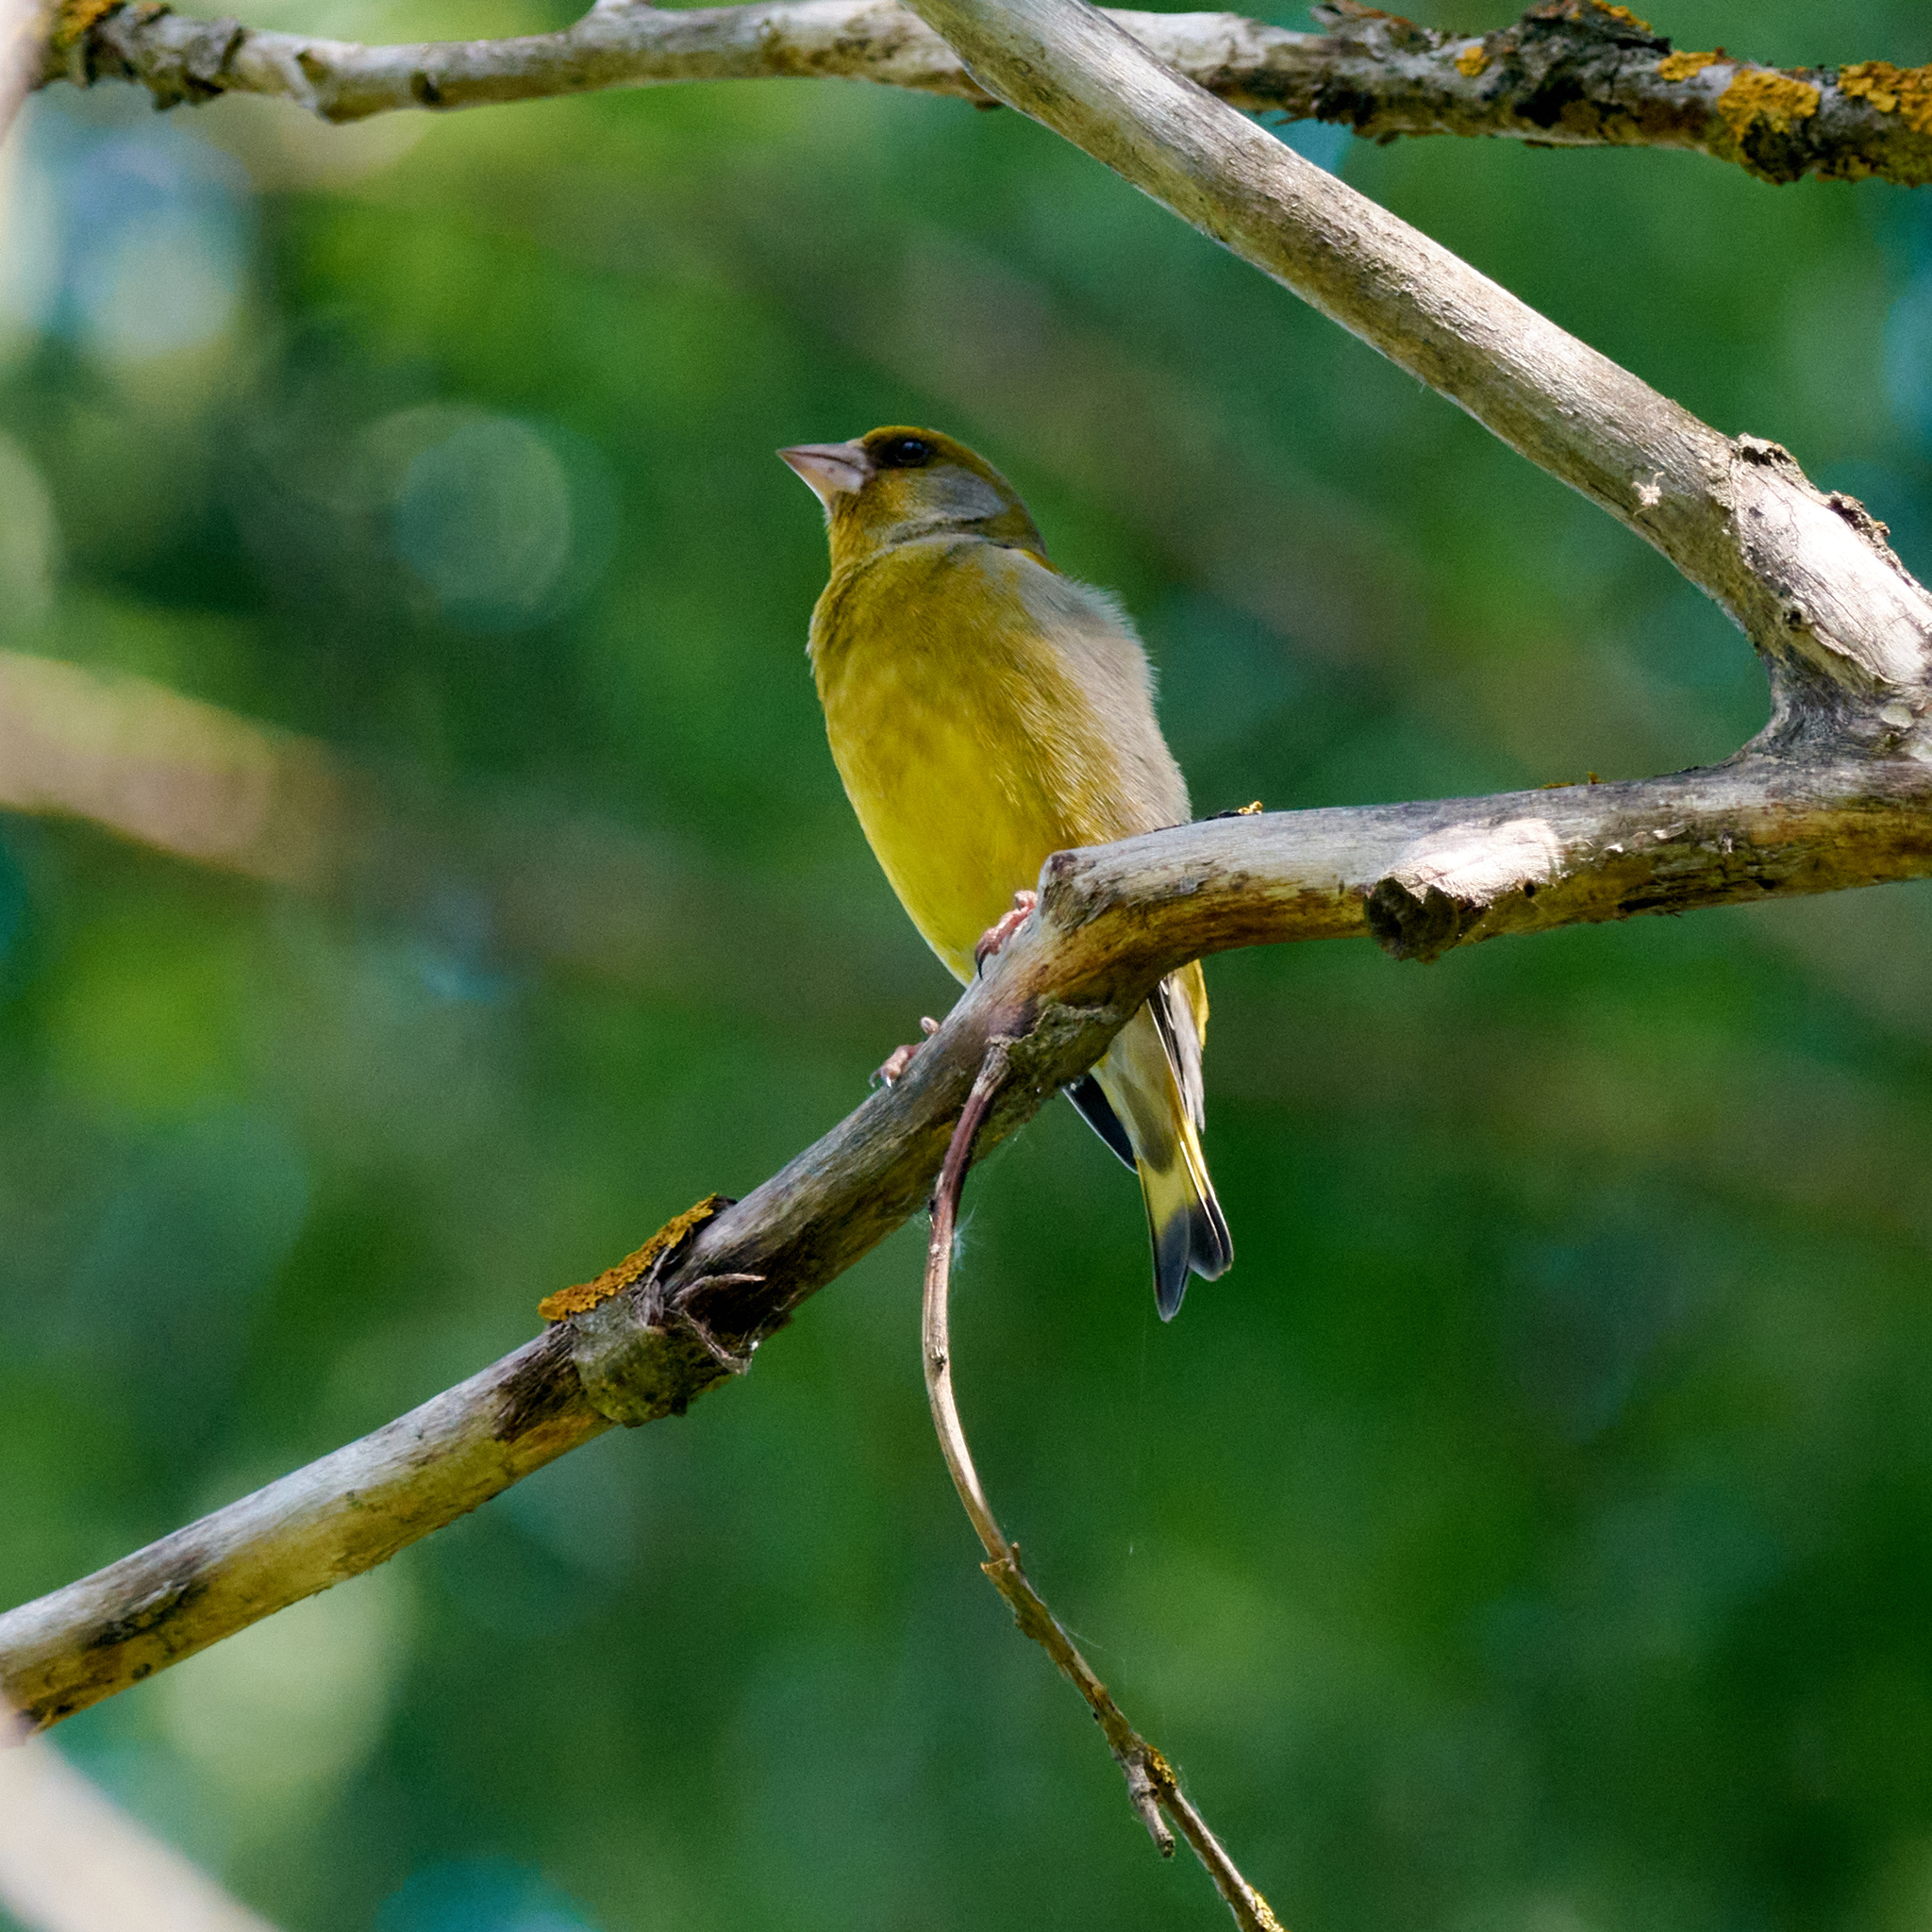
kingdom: Plantae
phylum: Tracheophyta
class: Liliopsida
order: Poales
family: Poaceae
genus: Chloris
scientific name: Chloris chloris
